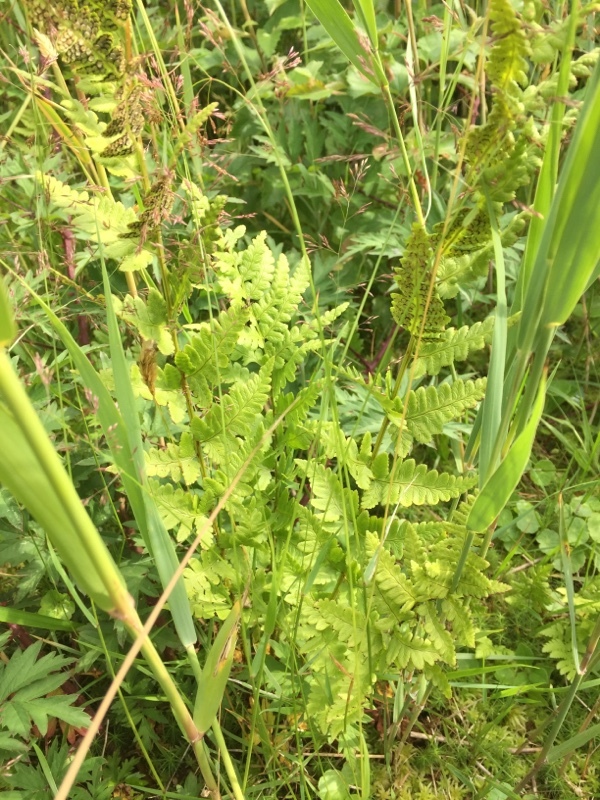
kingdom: Plantae
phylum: Tracheophyta
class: Polypodiopsida
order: Polypodiales
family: Dryopteridaceae
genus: Dryopteris
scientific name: Dryopteris cristata
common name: Crested wood fern
